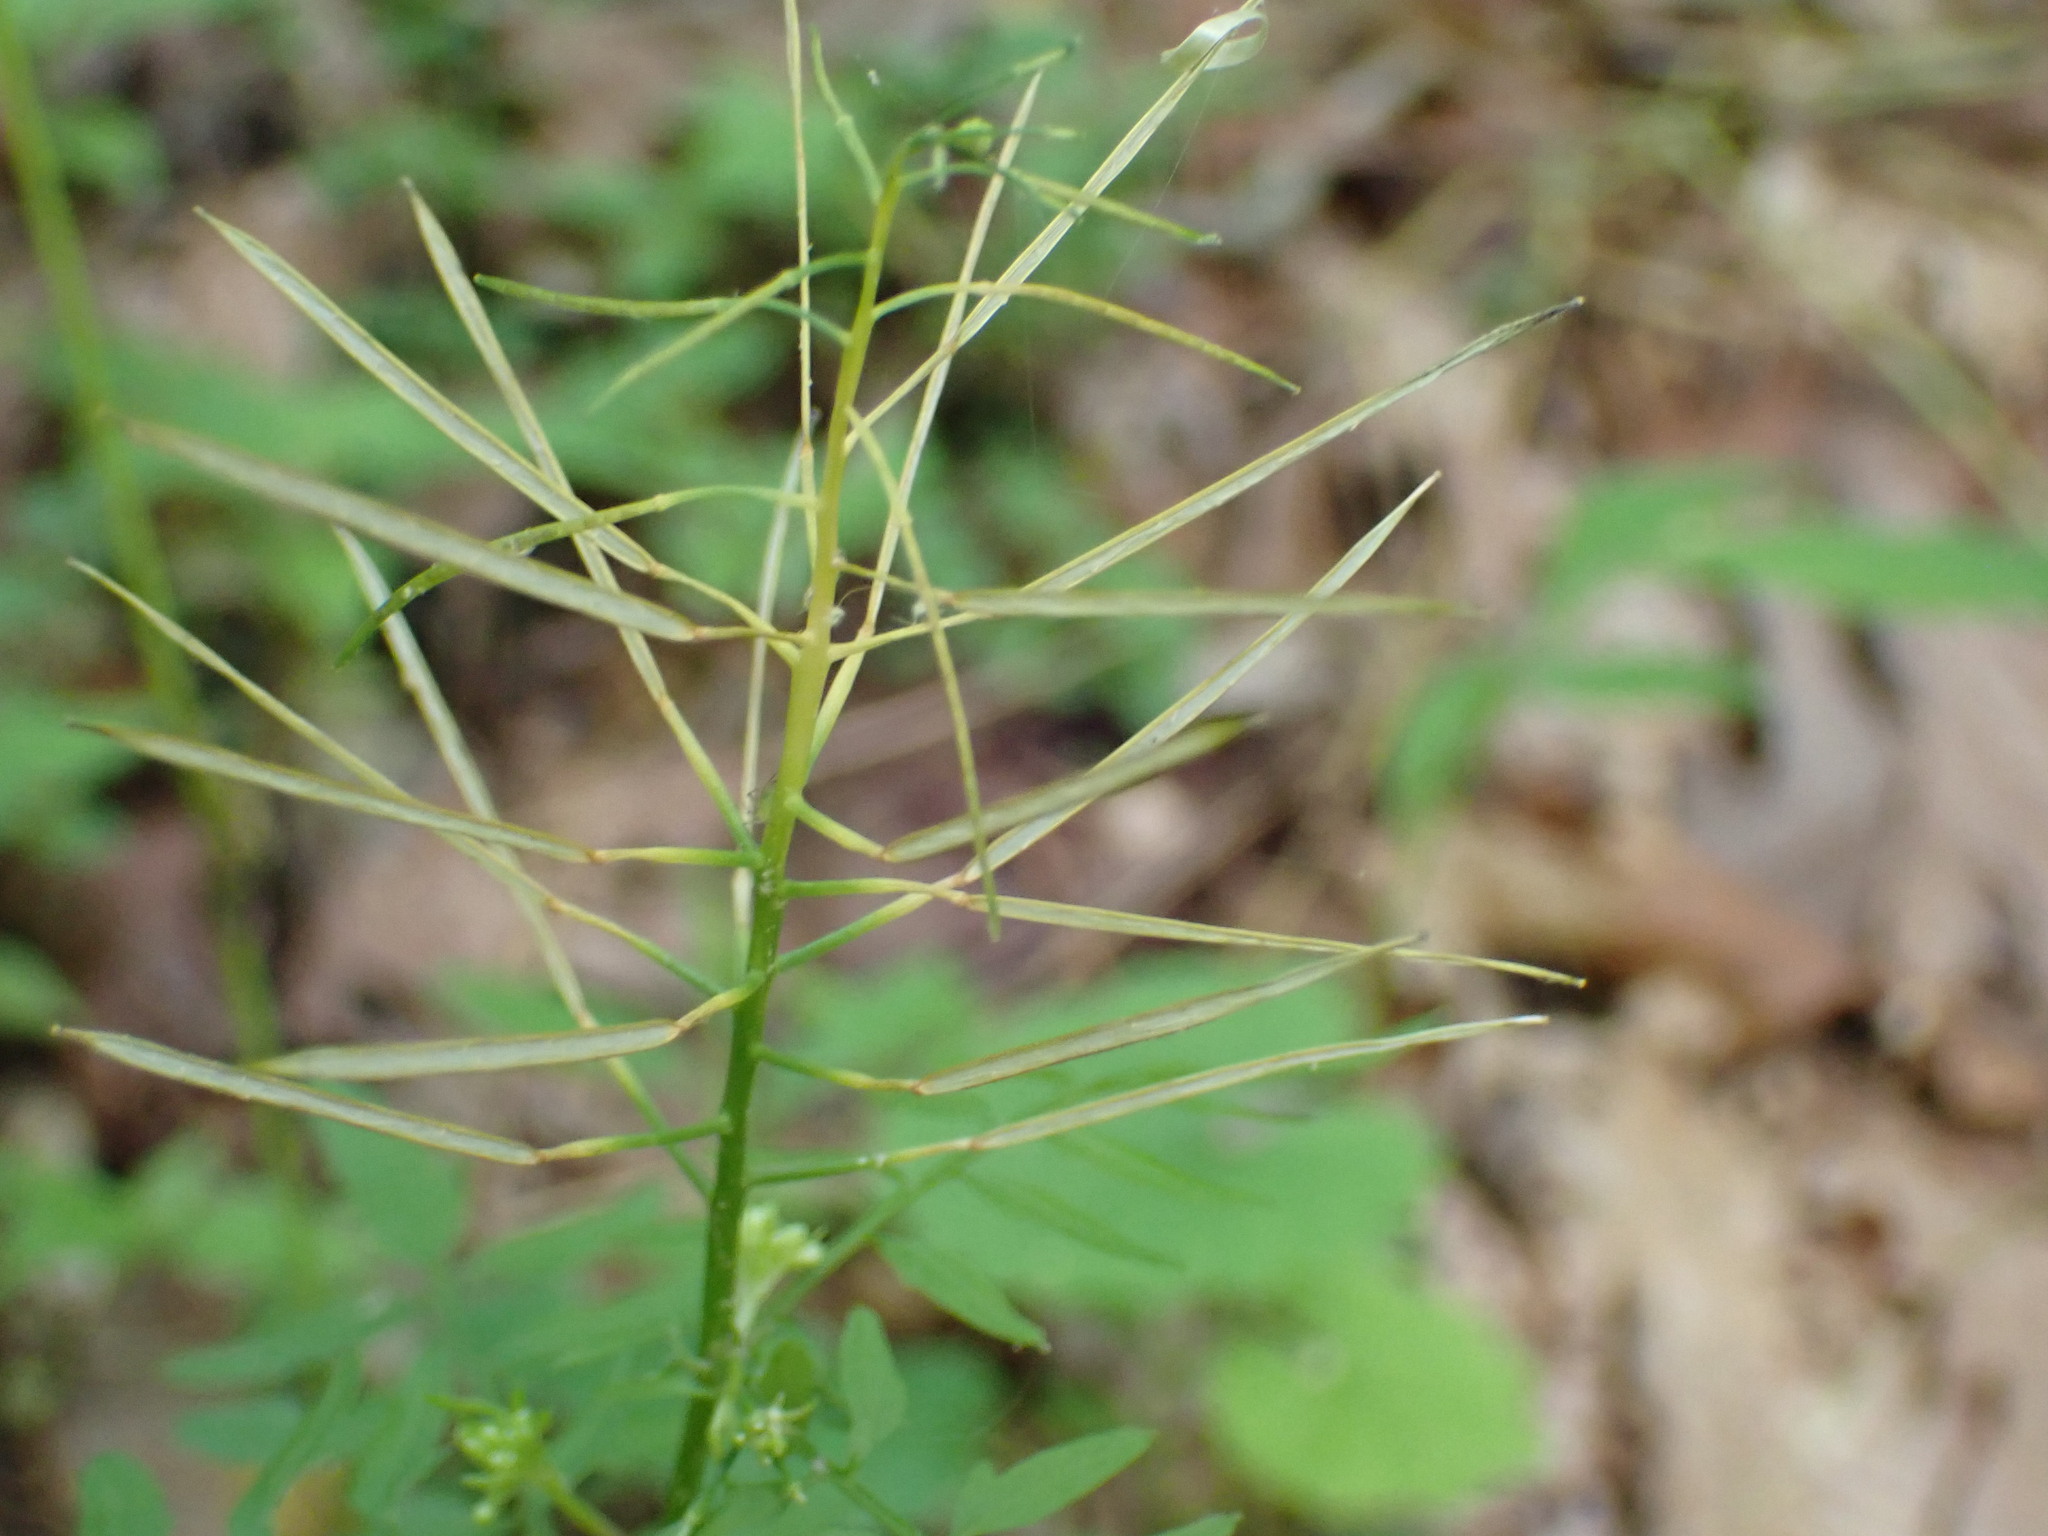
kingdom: Plantae
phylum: Tracheophyta
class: Magnoliopsida
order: Brassicales
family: Brassicaceae
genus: Cardamine
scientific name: Cardamine impatiens
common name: Narrow-leaved bitter-cress
